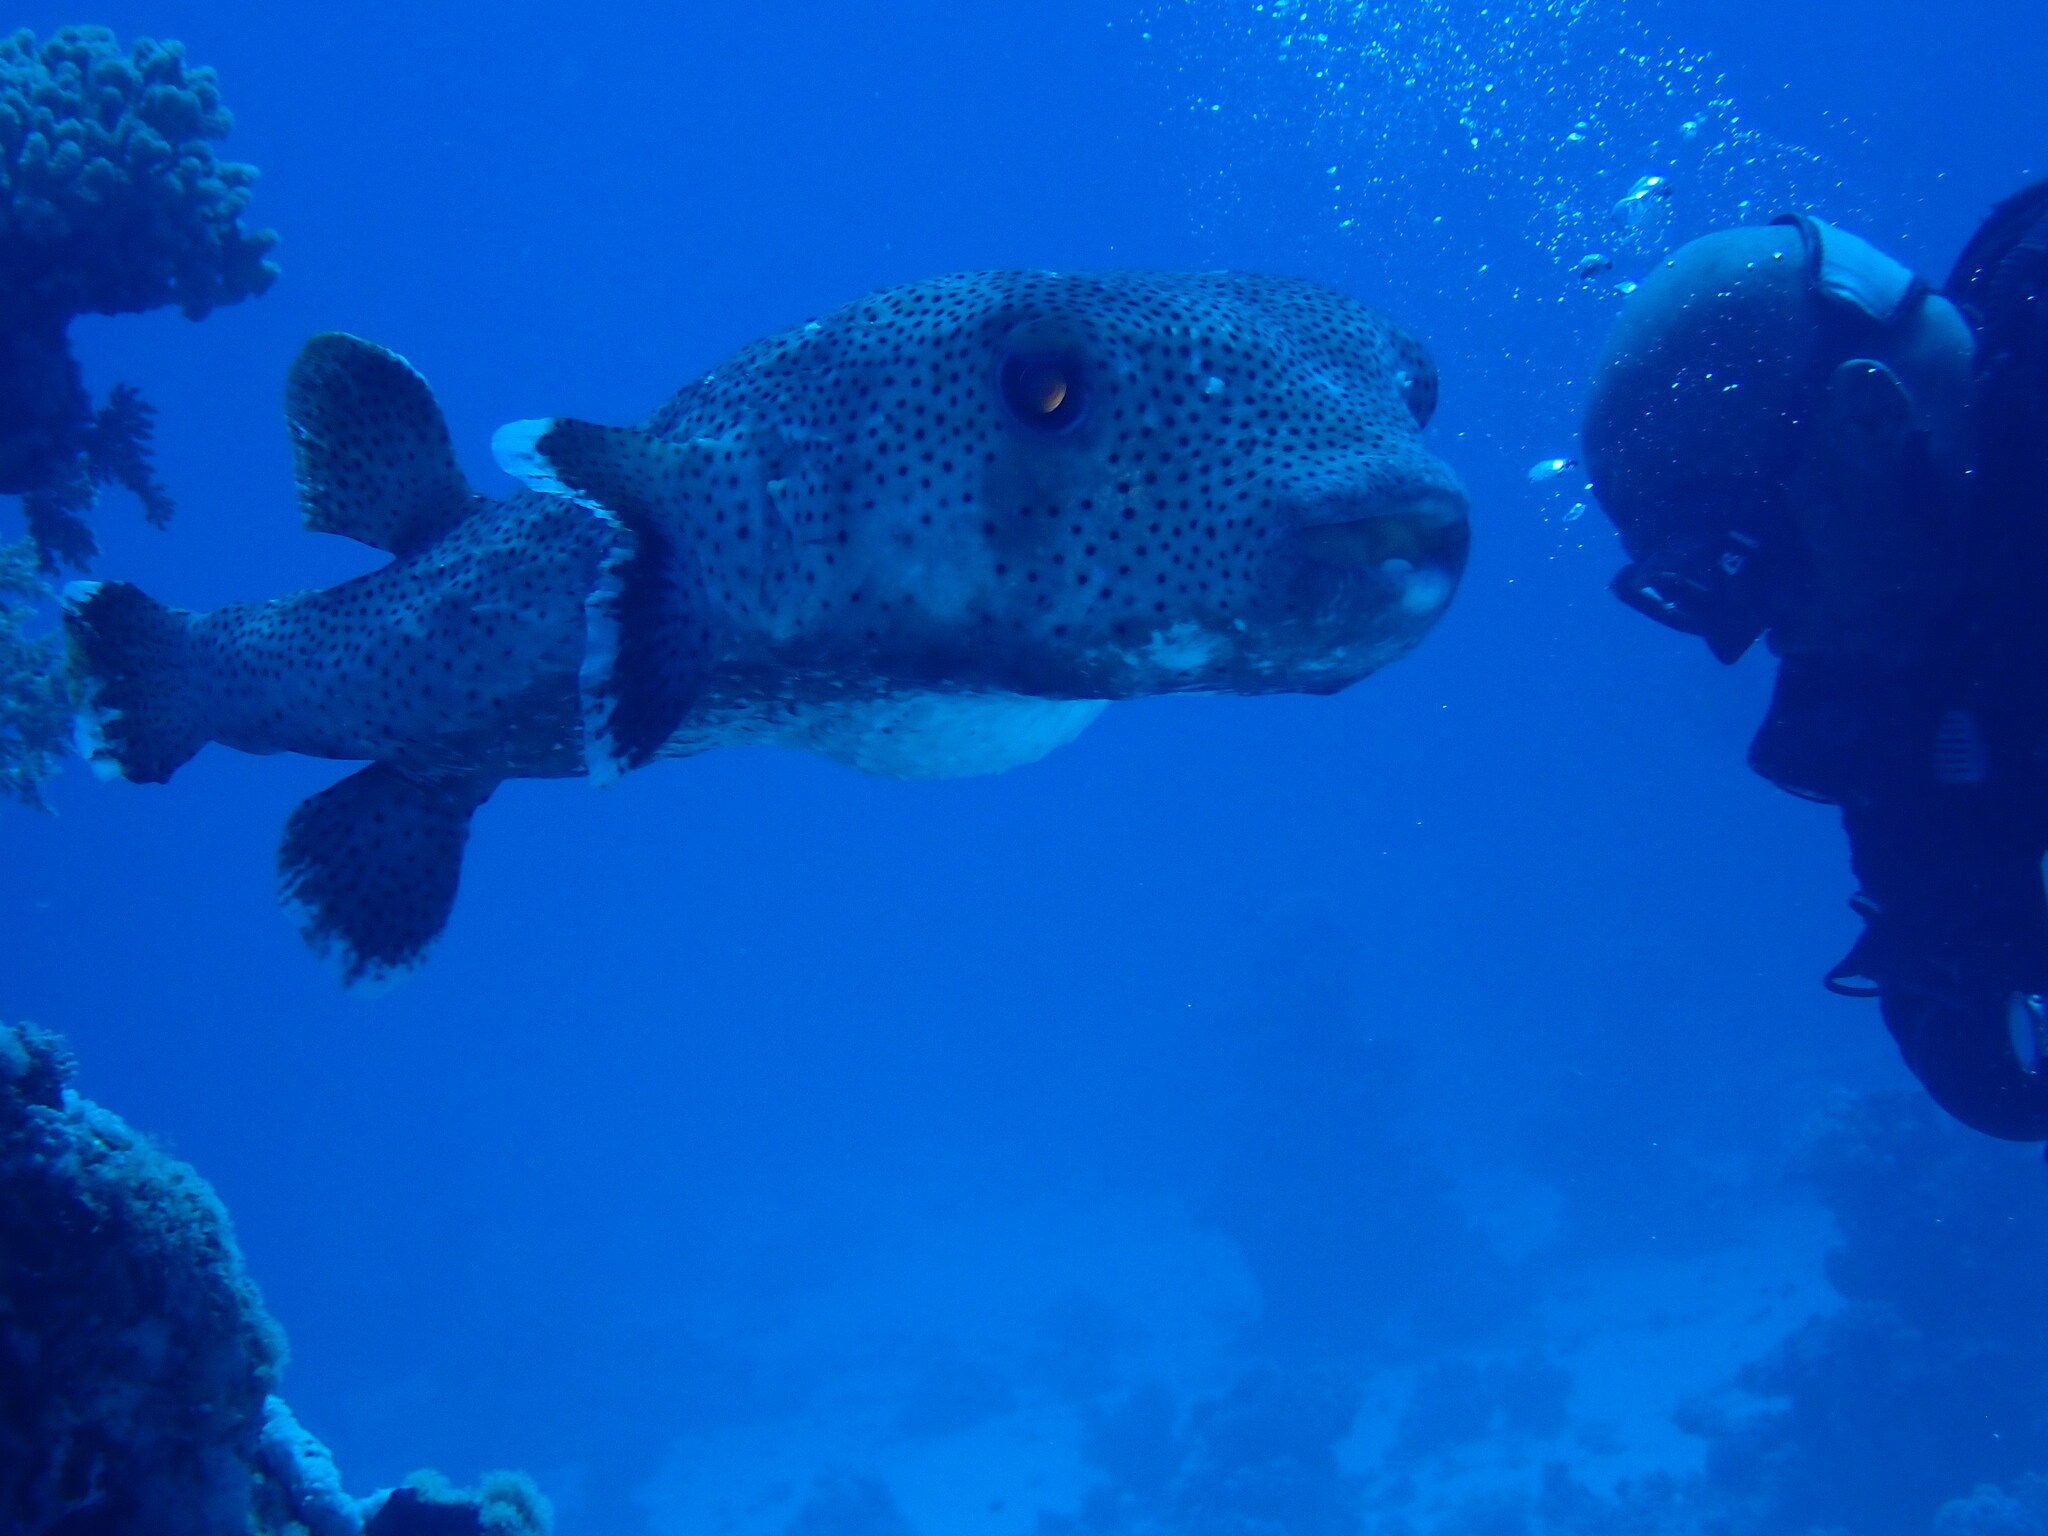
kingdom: Animalia
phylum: Chordata
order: Tetraodontiformes
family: Diodontidae
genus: Diodon
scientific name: Diodon hystrix
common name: Giant porcupinefish
